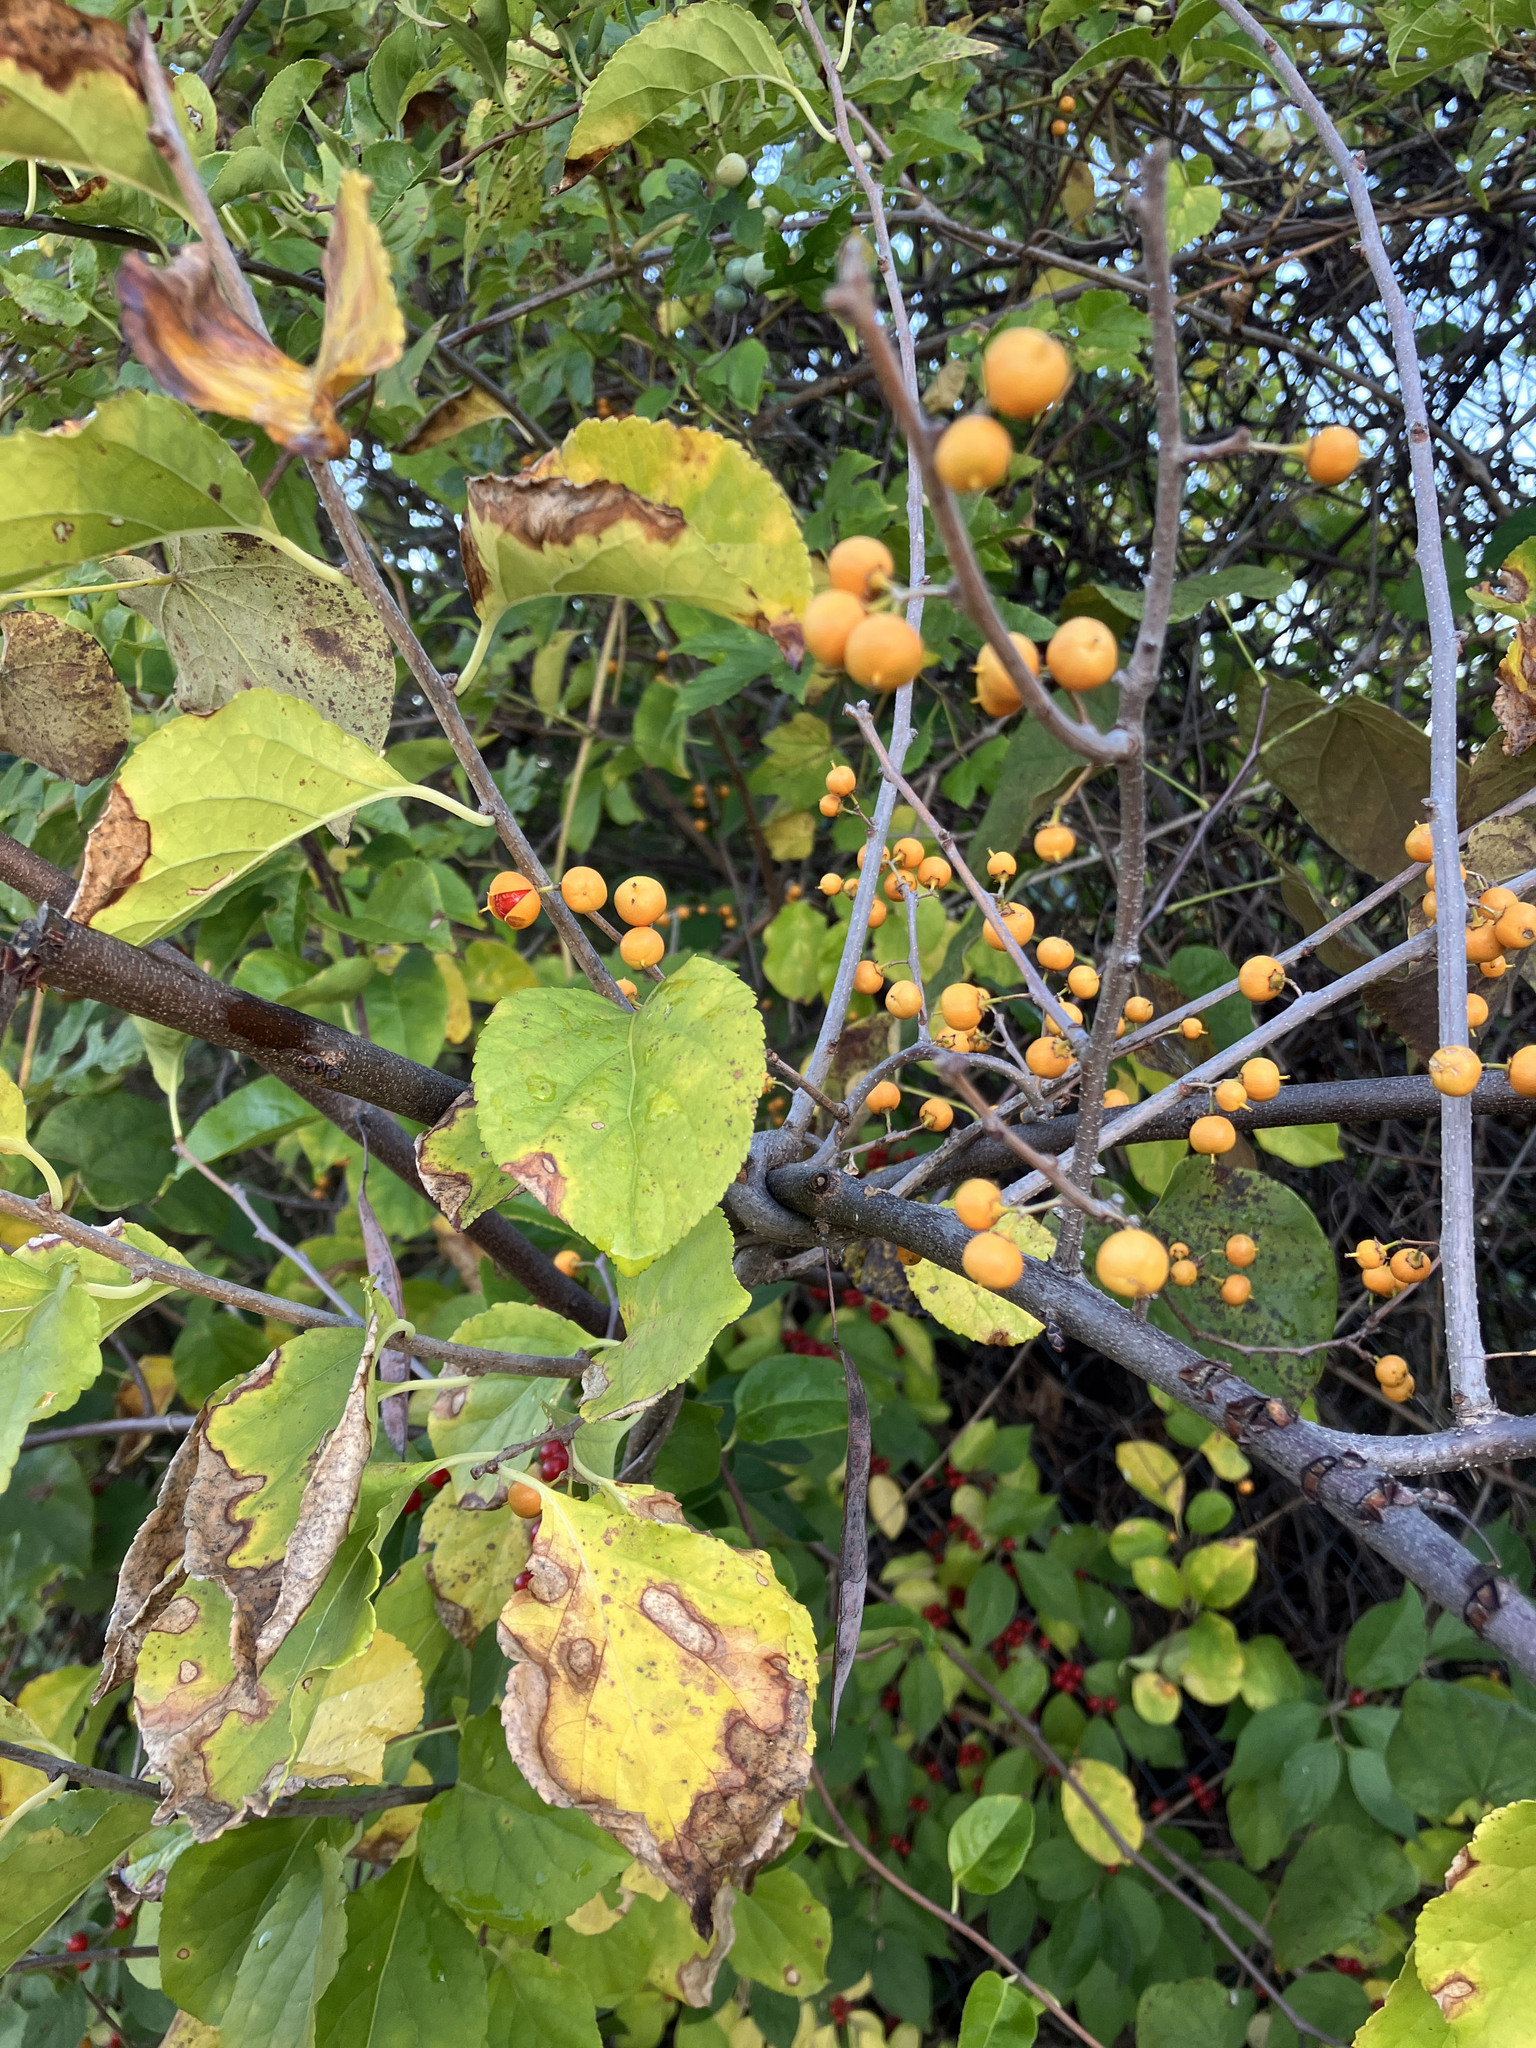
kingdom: Plantae
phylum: Tracheophyta
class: Magnoliopsida
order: Celastrales
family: Celastraceae
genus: Celastrus
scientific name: Celastrus orbiculatus
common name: Oriental bittersweet
